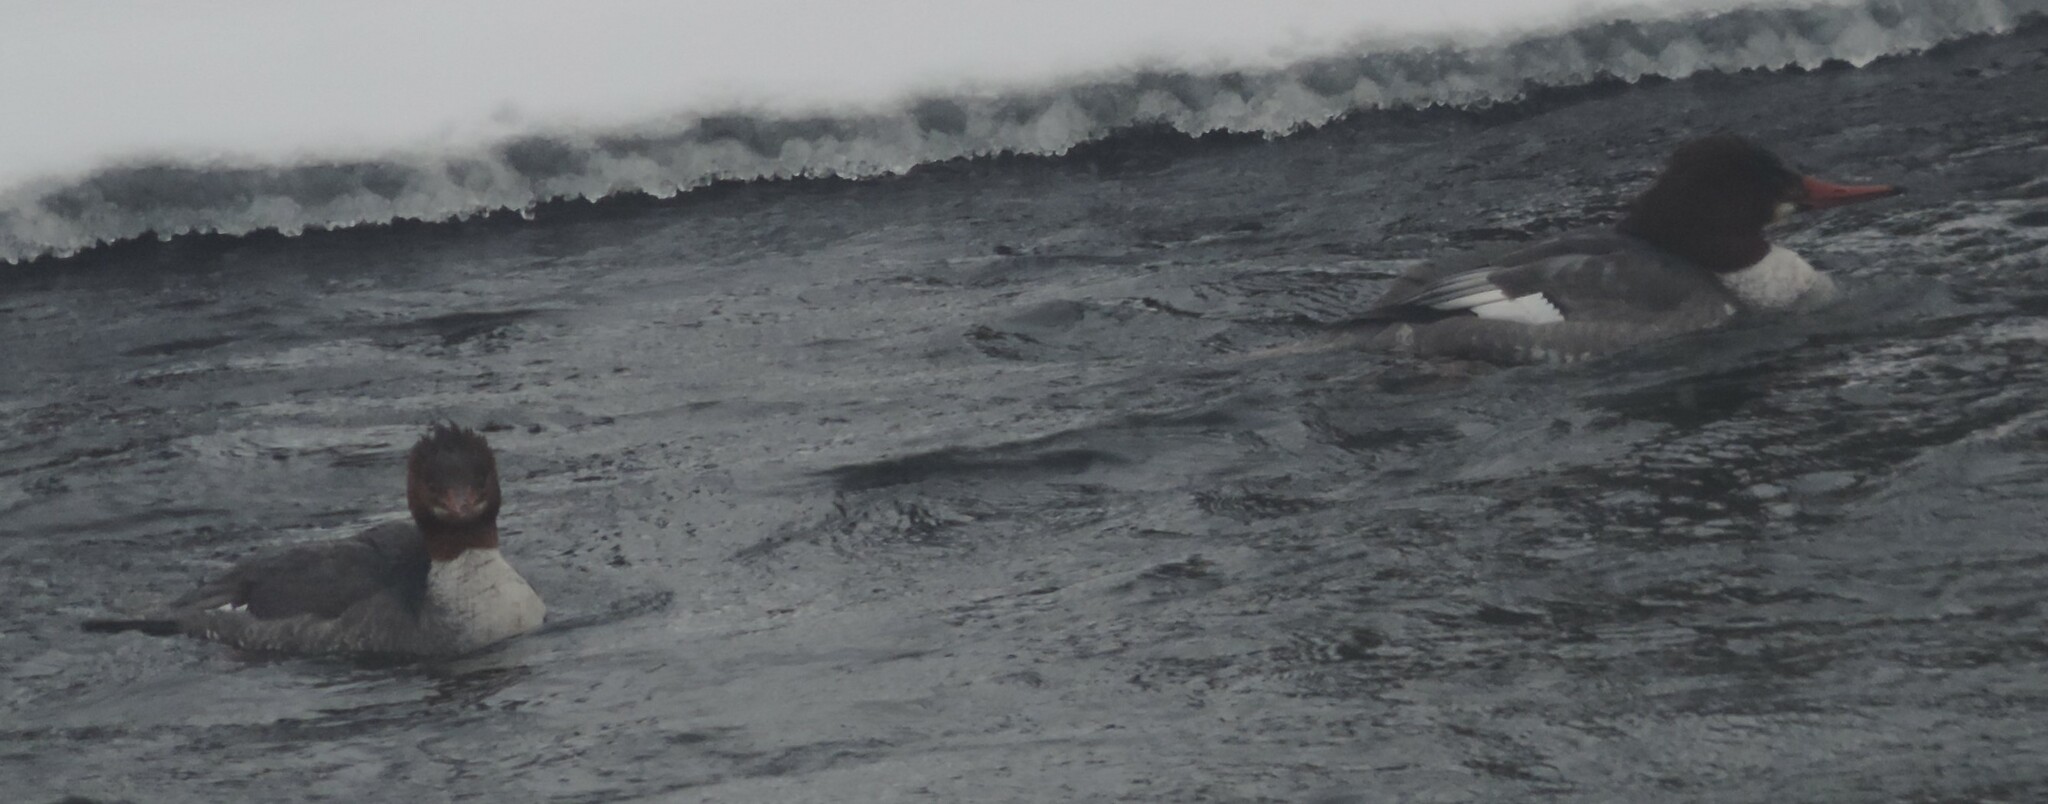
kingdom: Animalia
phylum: Chordata
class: Aves
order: Anseriformes
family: Anatidae
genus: Mergus
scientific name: Mergus merganser
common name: Common merganser
